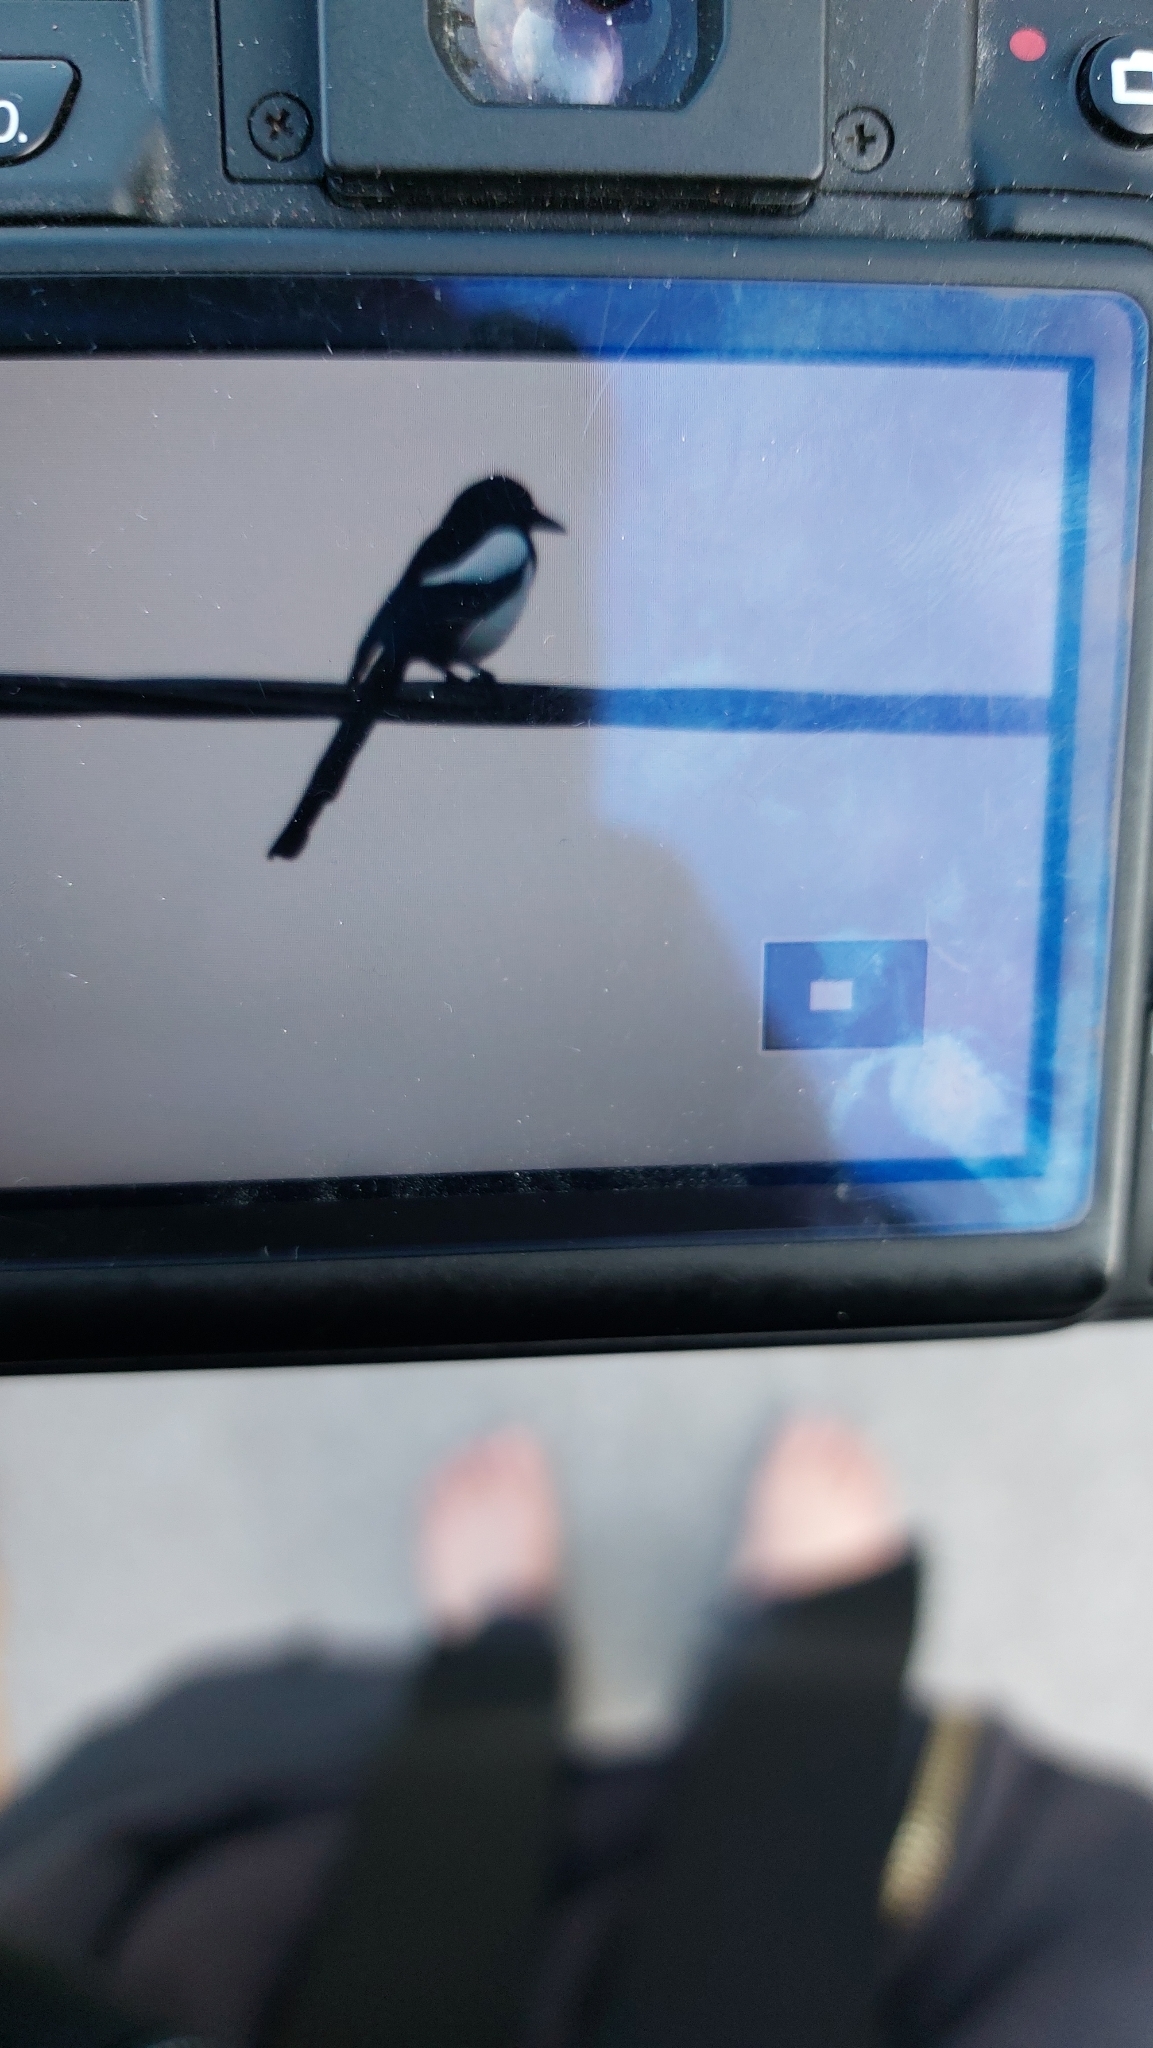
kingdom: Animalia
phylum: Chordata
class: Aves
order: Passeriformes
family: Corvidae
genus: Pica
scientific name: Pica pica
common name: Eurasian magpie
